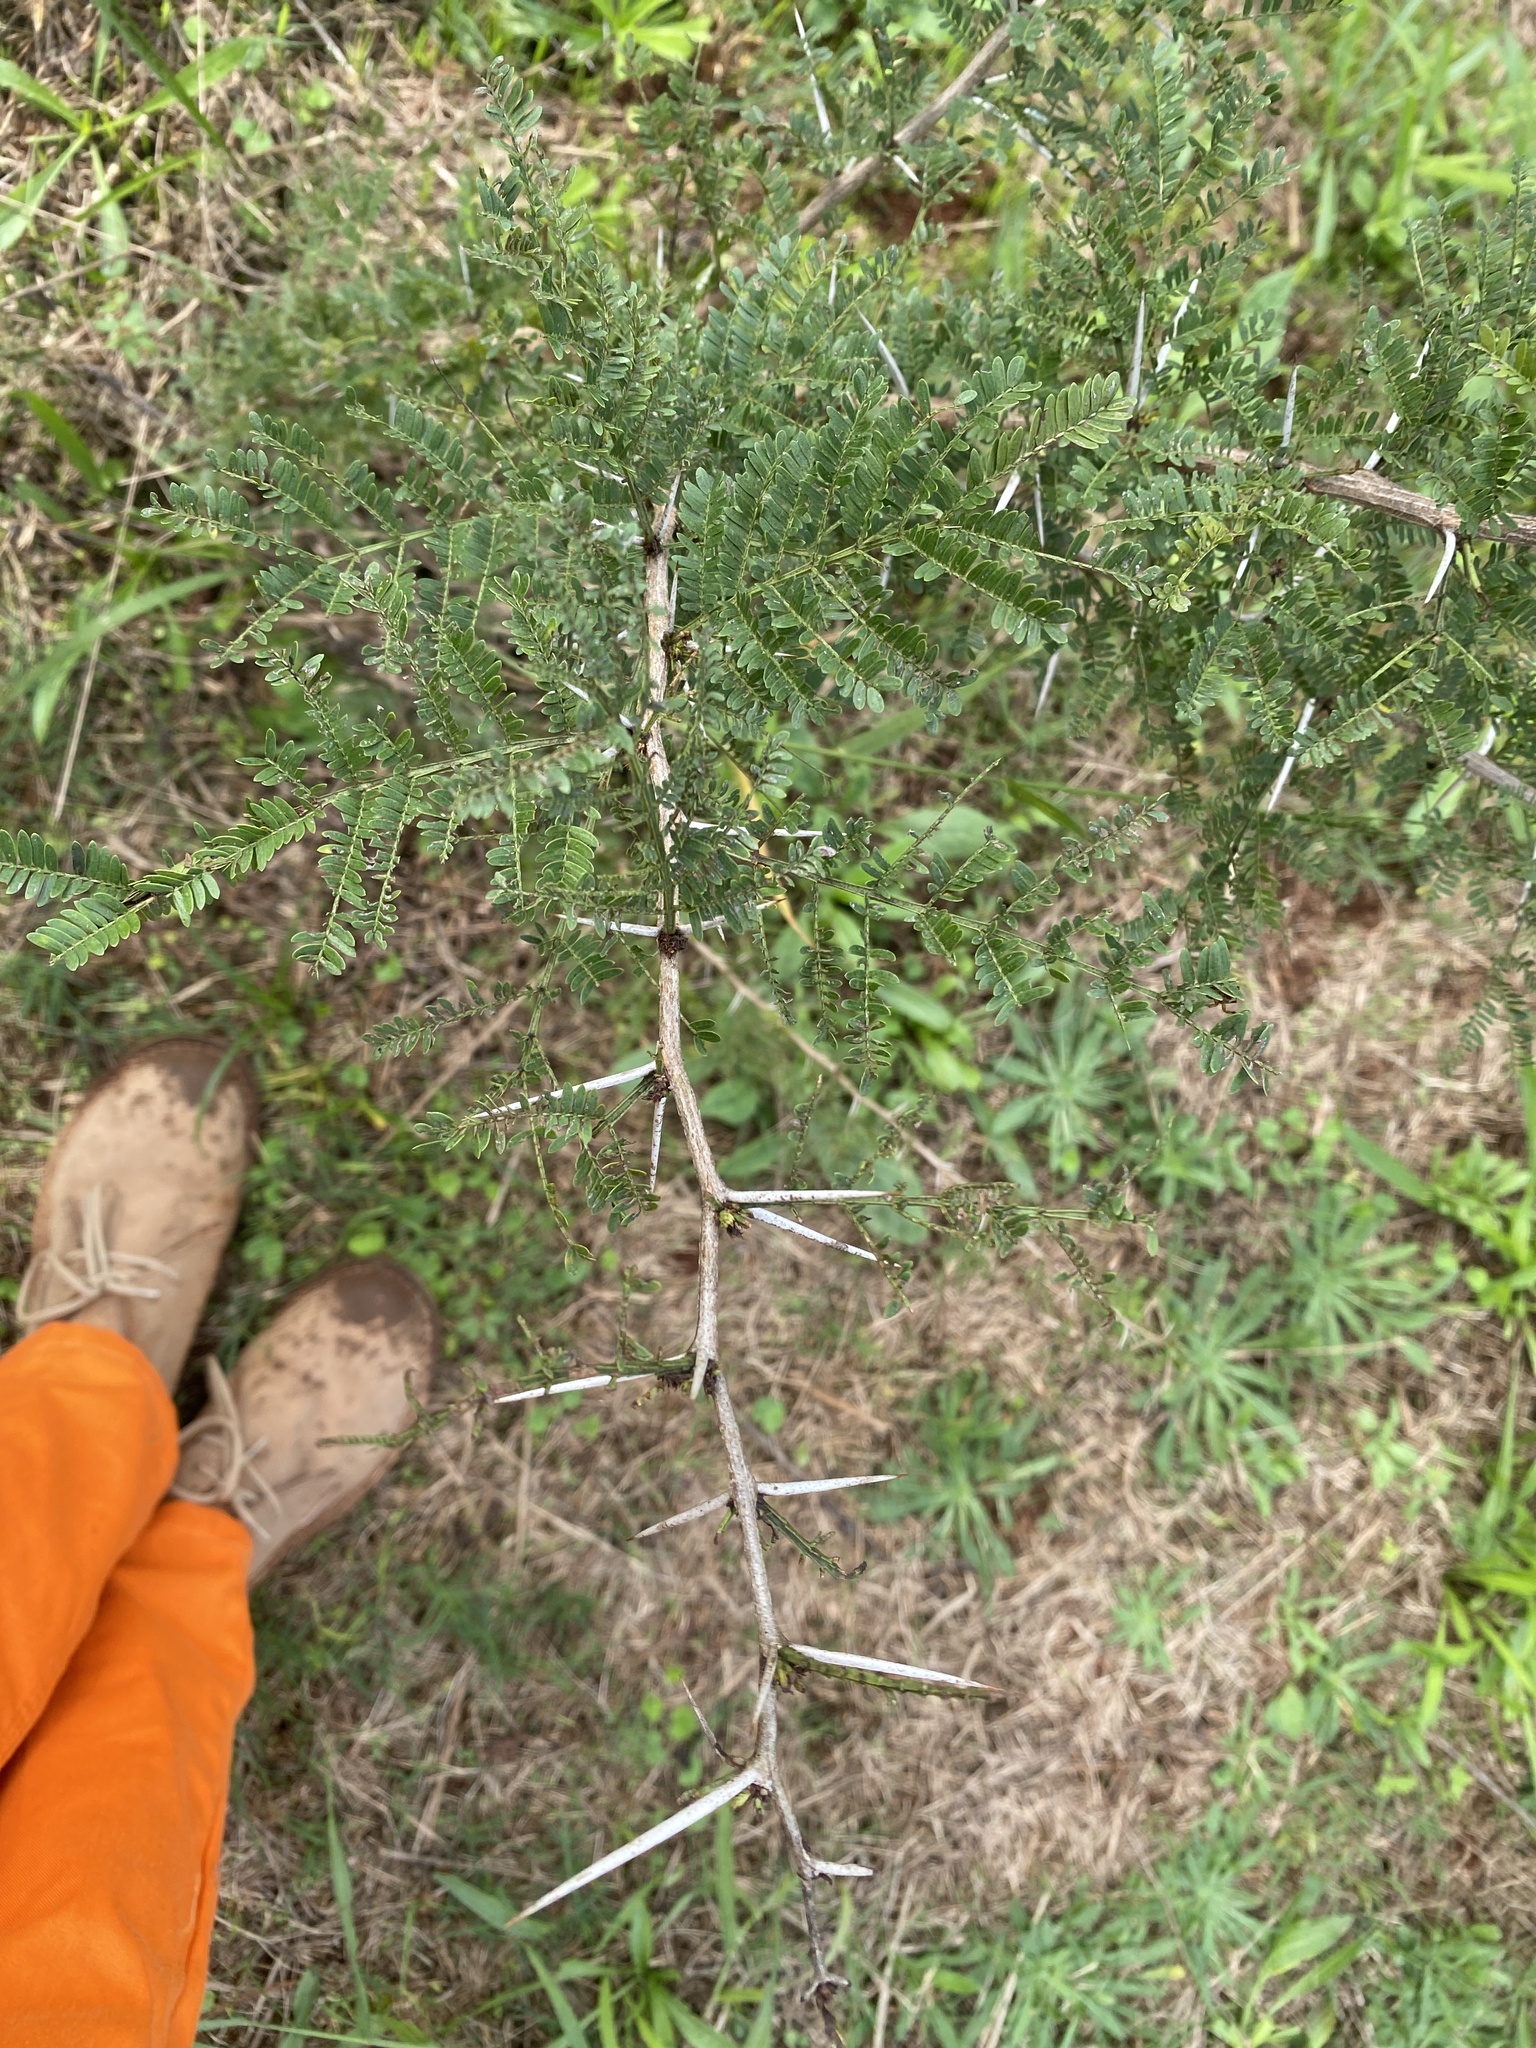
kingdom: Plantae
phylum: Tracheophyta
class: Magnoliopsida
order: Fabales
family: Fabaceae
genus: Vachellia
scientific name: Vachellia natalitia
